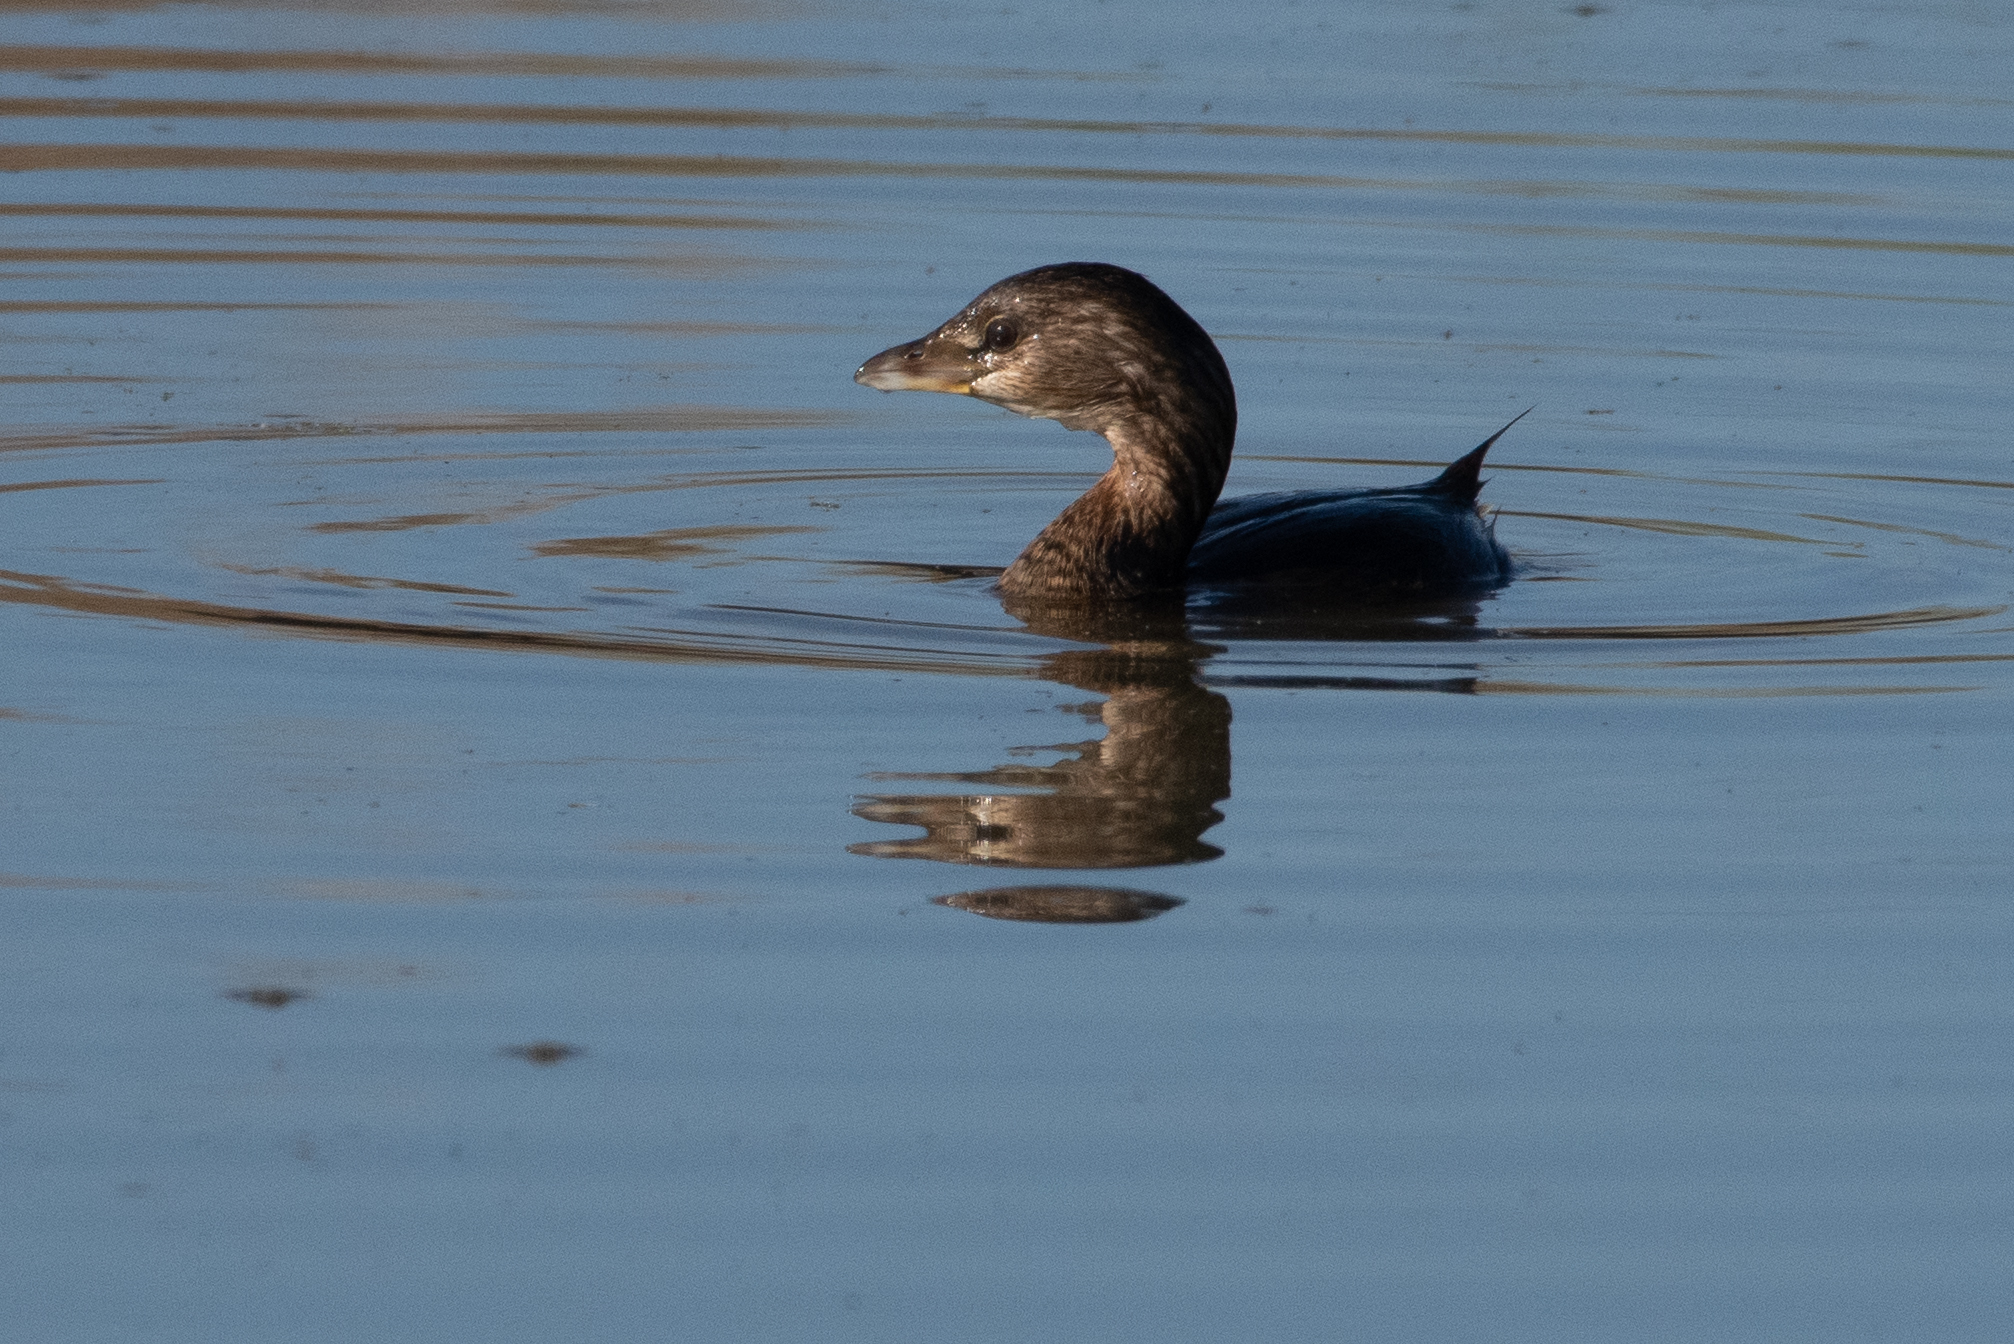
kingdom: Animalia
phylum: Chordata
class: Aves
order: Podicipediformes
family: Podicipedidae
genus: Podilymbus
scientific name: Podilymbus podiceps
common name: Pied-billed grebe
